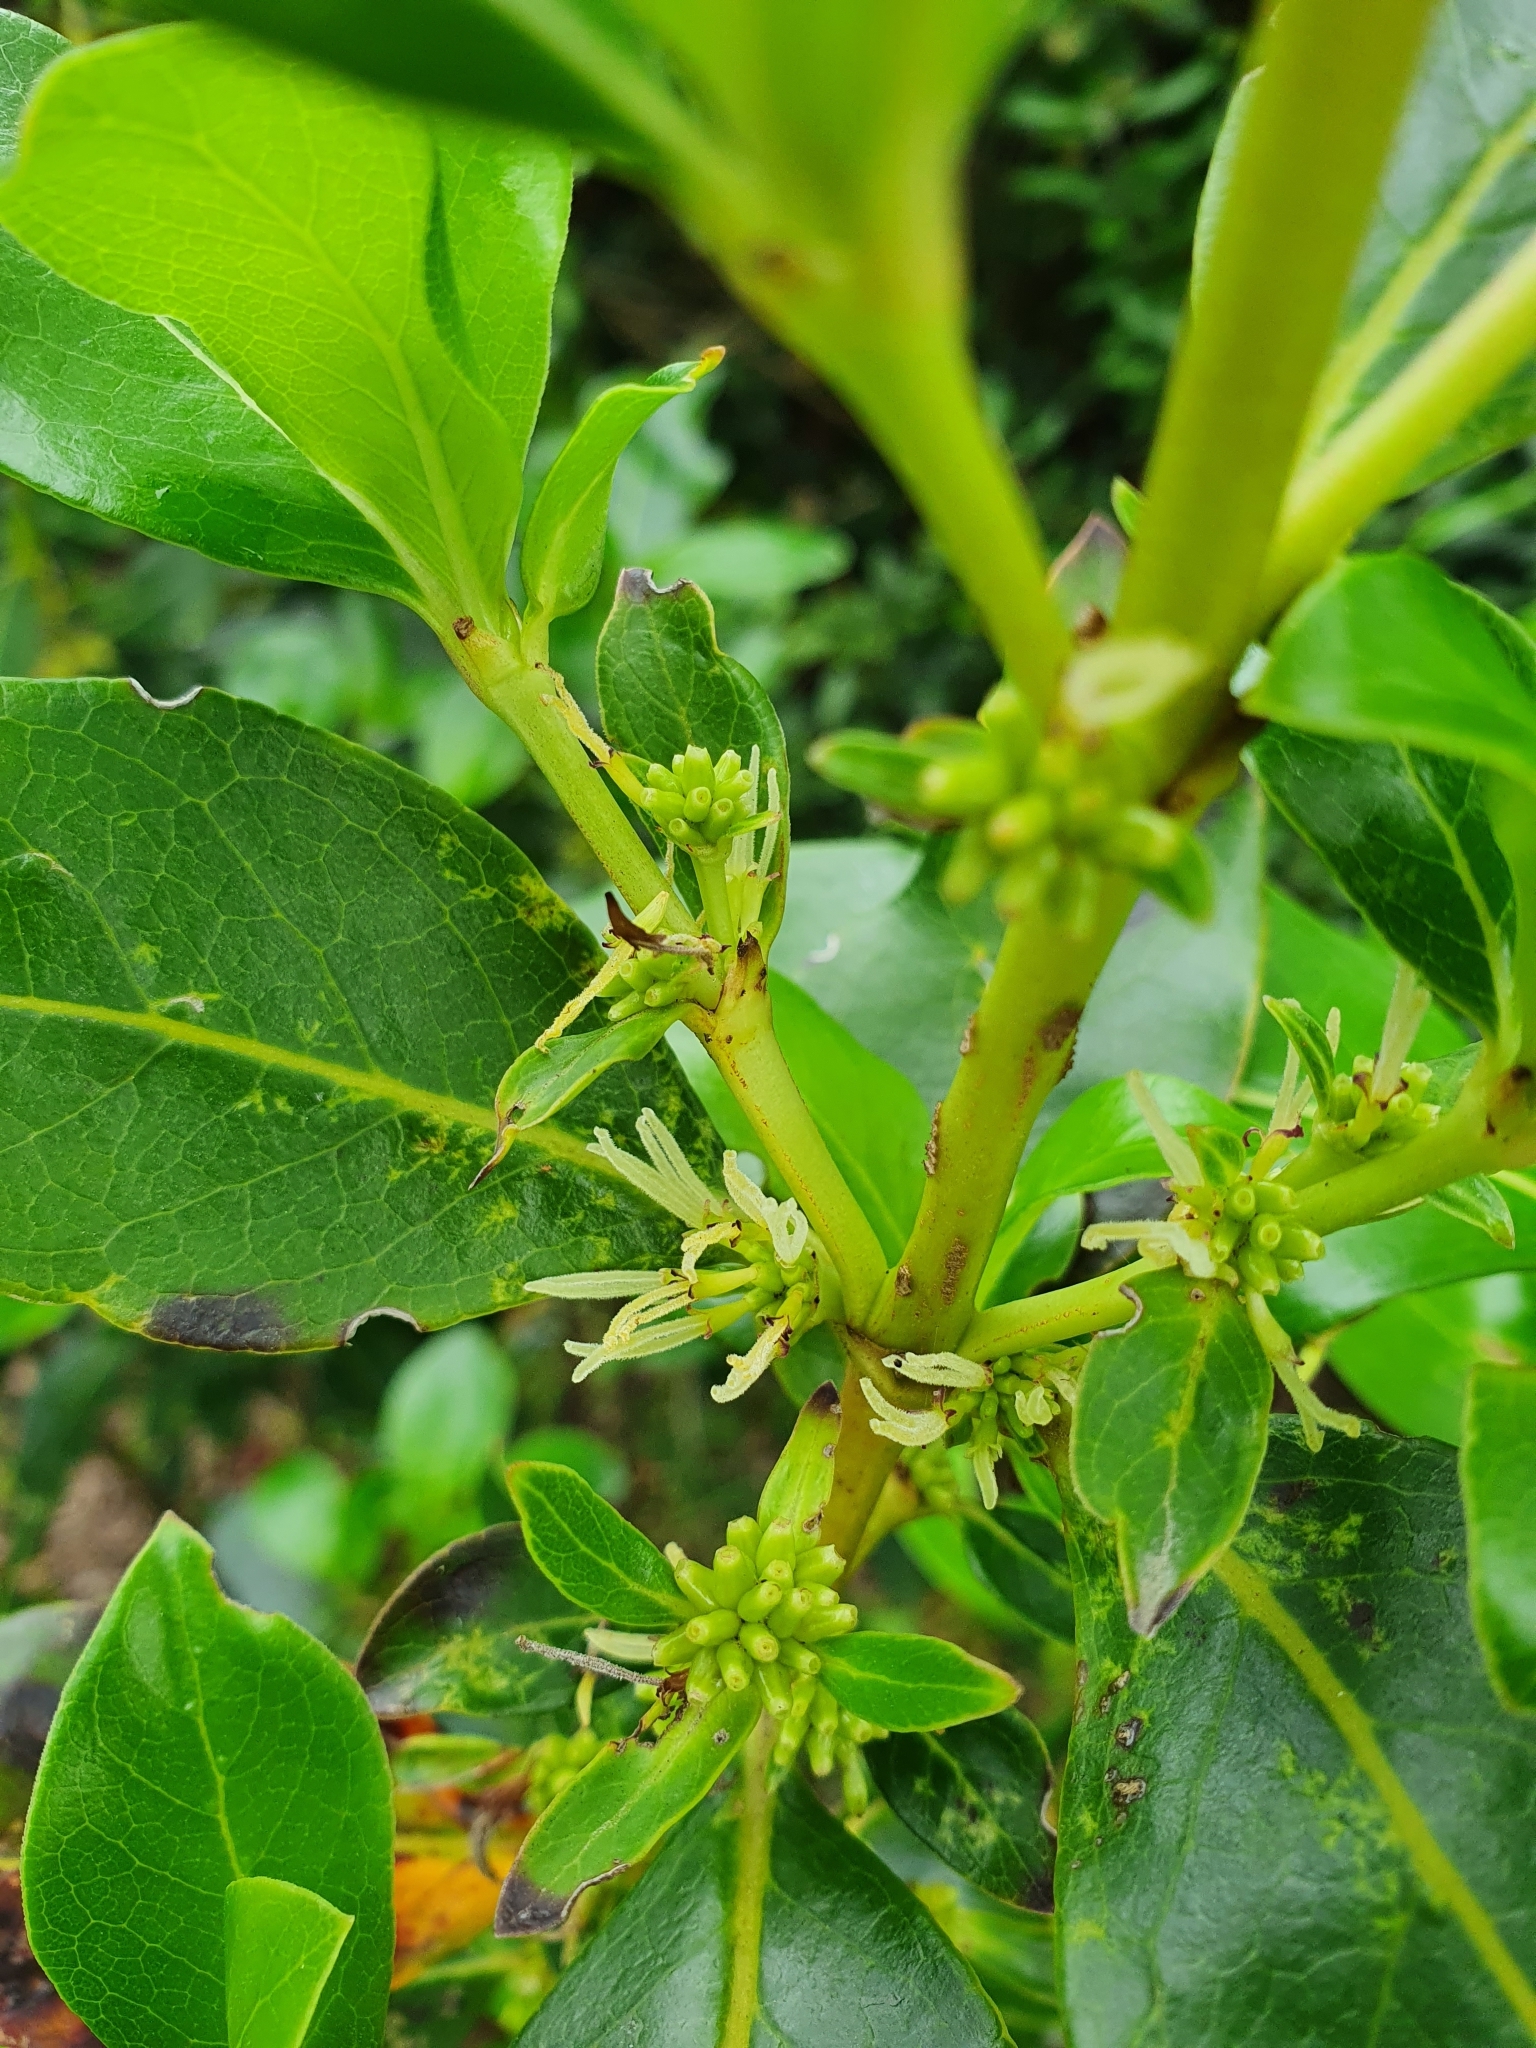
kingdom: Plantae
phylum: Tracheophyta
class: Magnoliopsida
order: Gentianales
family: Rubiaceae
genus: Coprosma
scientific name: Coprosma robusta
